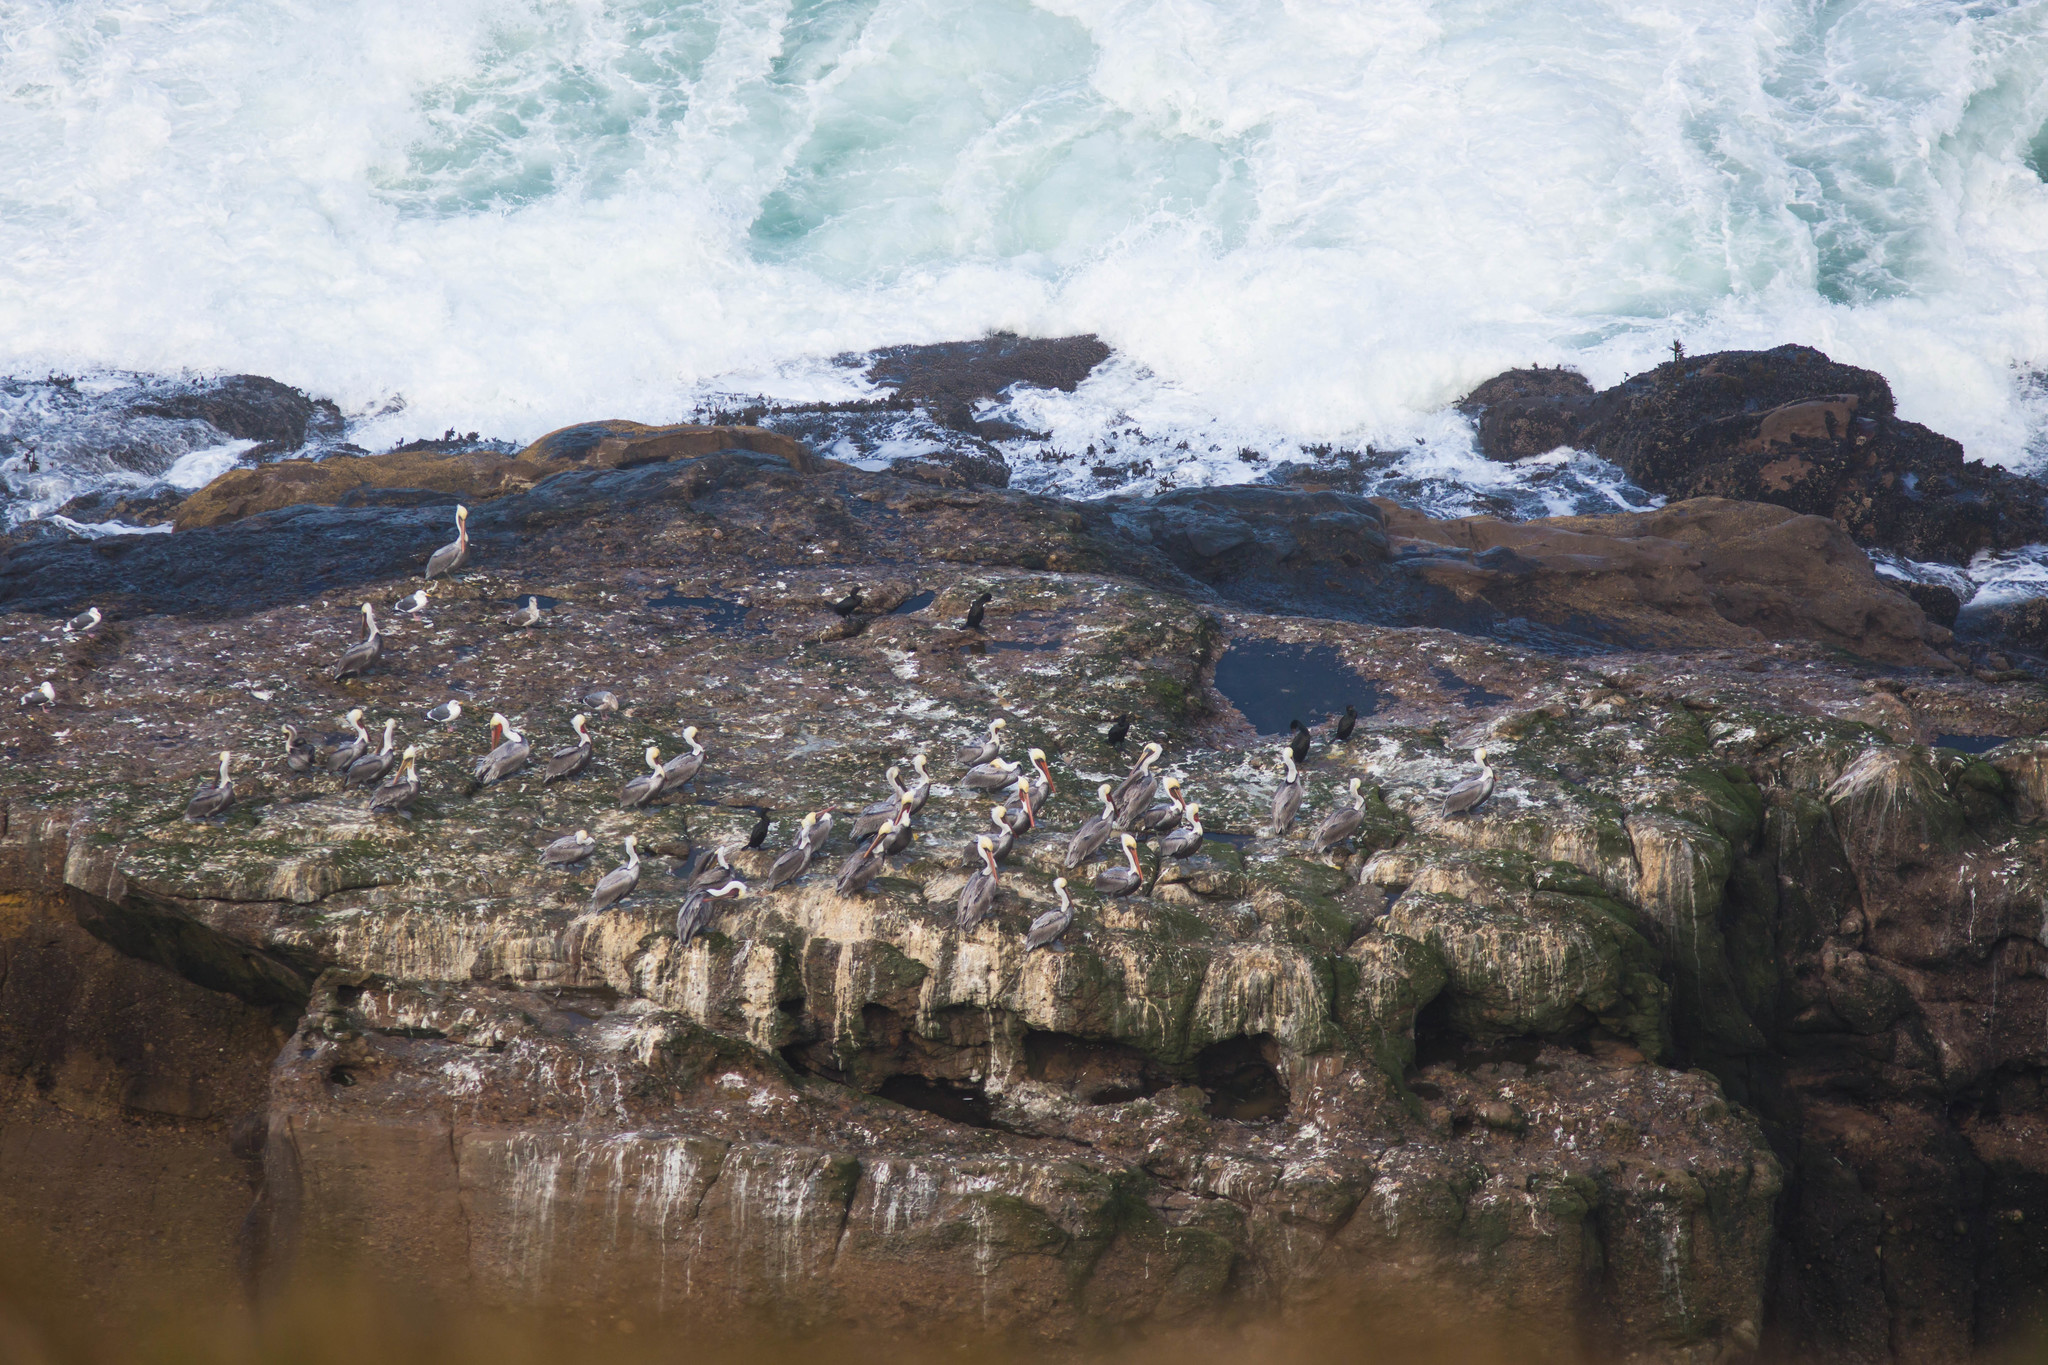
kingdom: Animalia
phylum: Chordata
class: Aves
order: Pelecaniformes
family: Pelecanidae
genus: Pelecanus
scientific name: Pelecanus occidentalis
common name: Brown pelican
